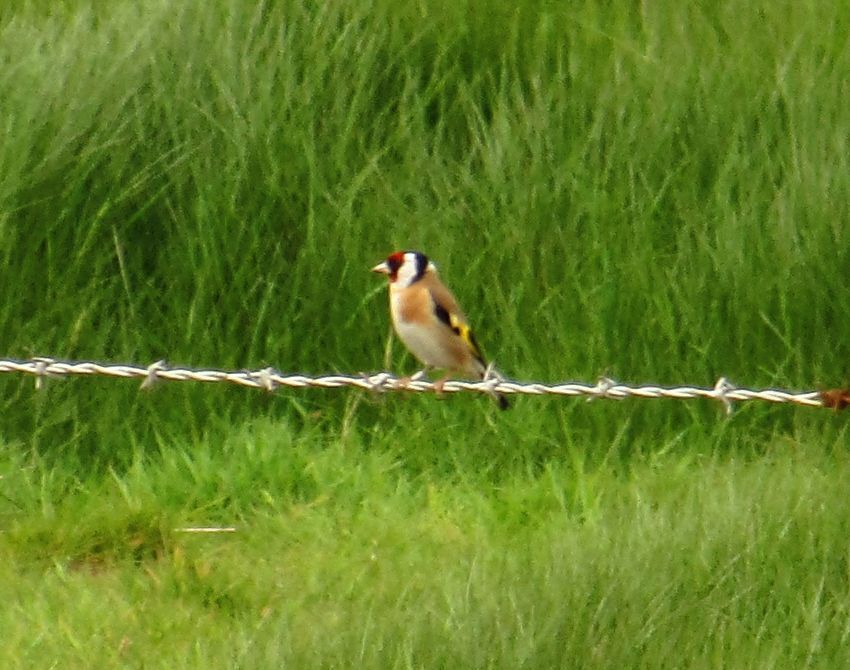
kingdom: Animalia
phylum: Chordata
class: Aves
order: Passeriformes
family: Fringillidae
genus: Carduelis
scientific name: Carduelis carduelis
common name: European goldfinch
